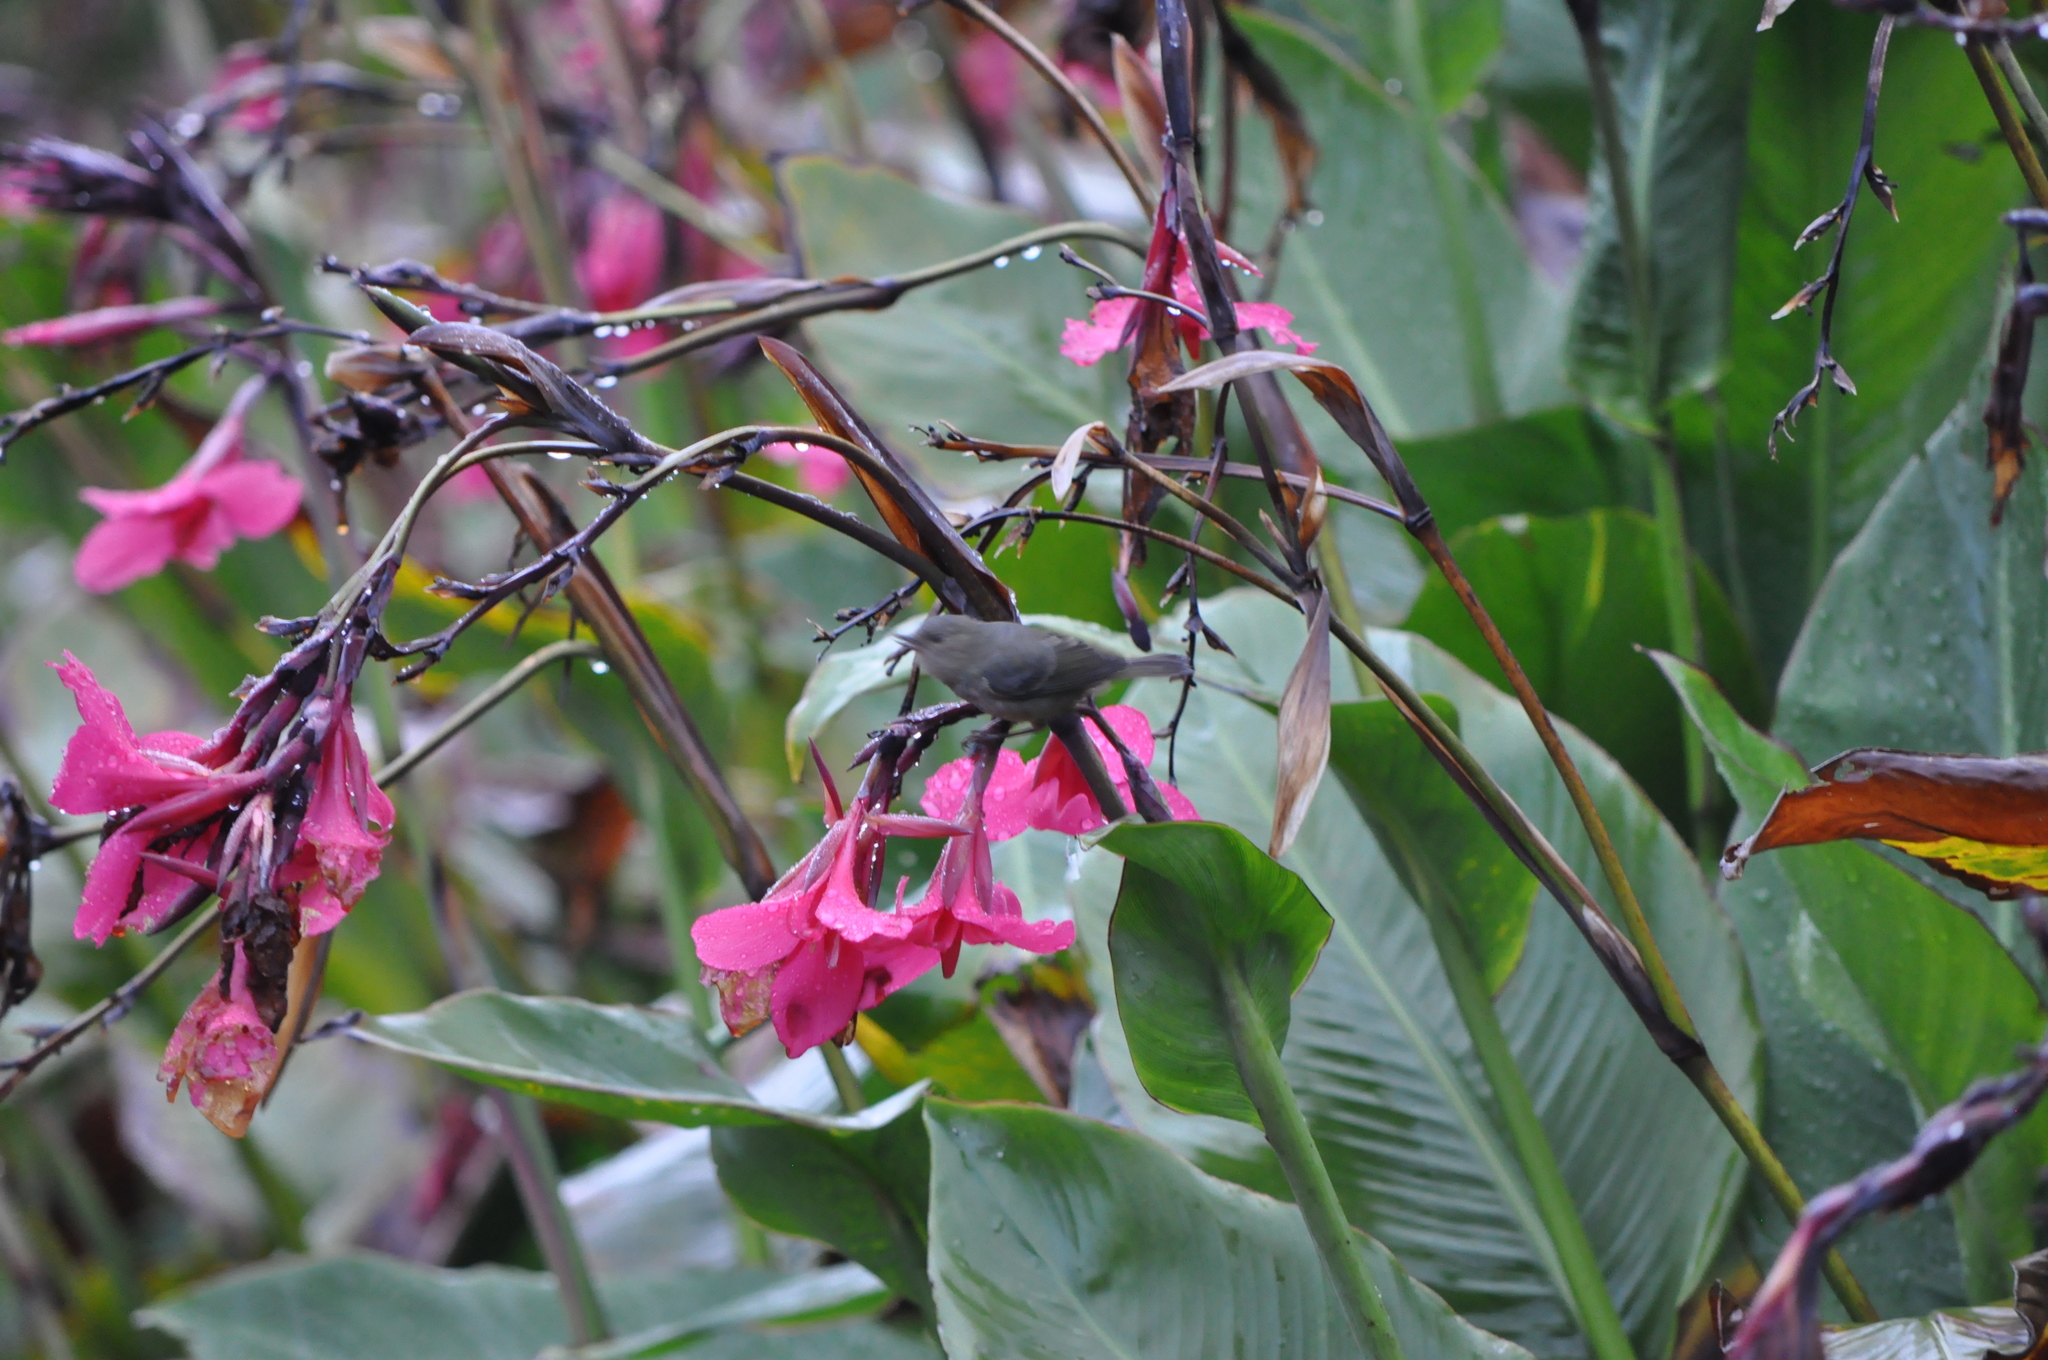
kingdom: Animalia
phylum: Chordata
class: Aves
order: Passeriformes
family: Thraupidae
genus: Diglossa
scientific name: Diglossa plumbea
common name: Slaty flowerpiercer
